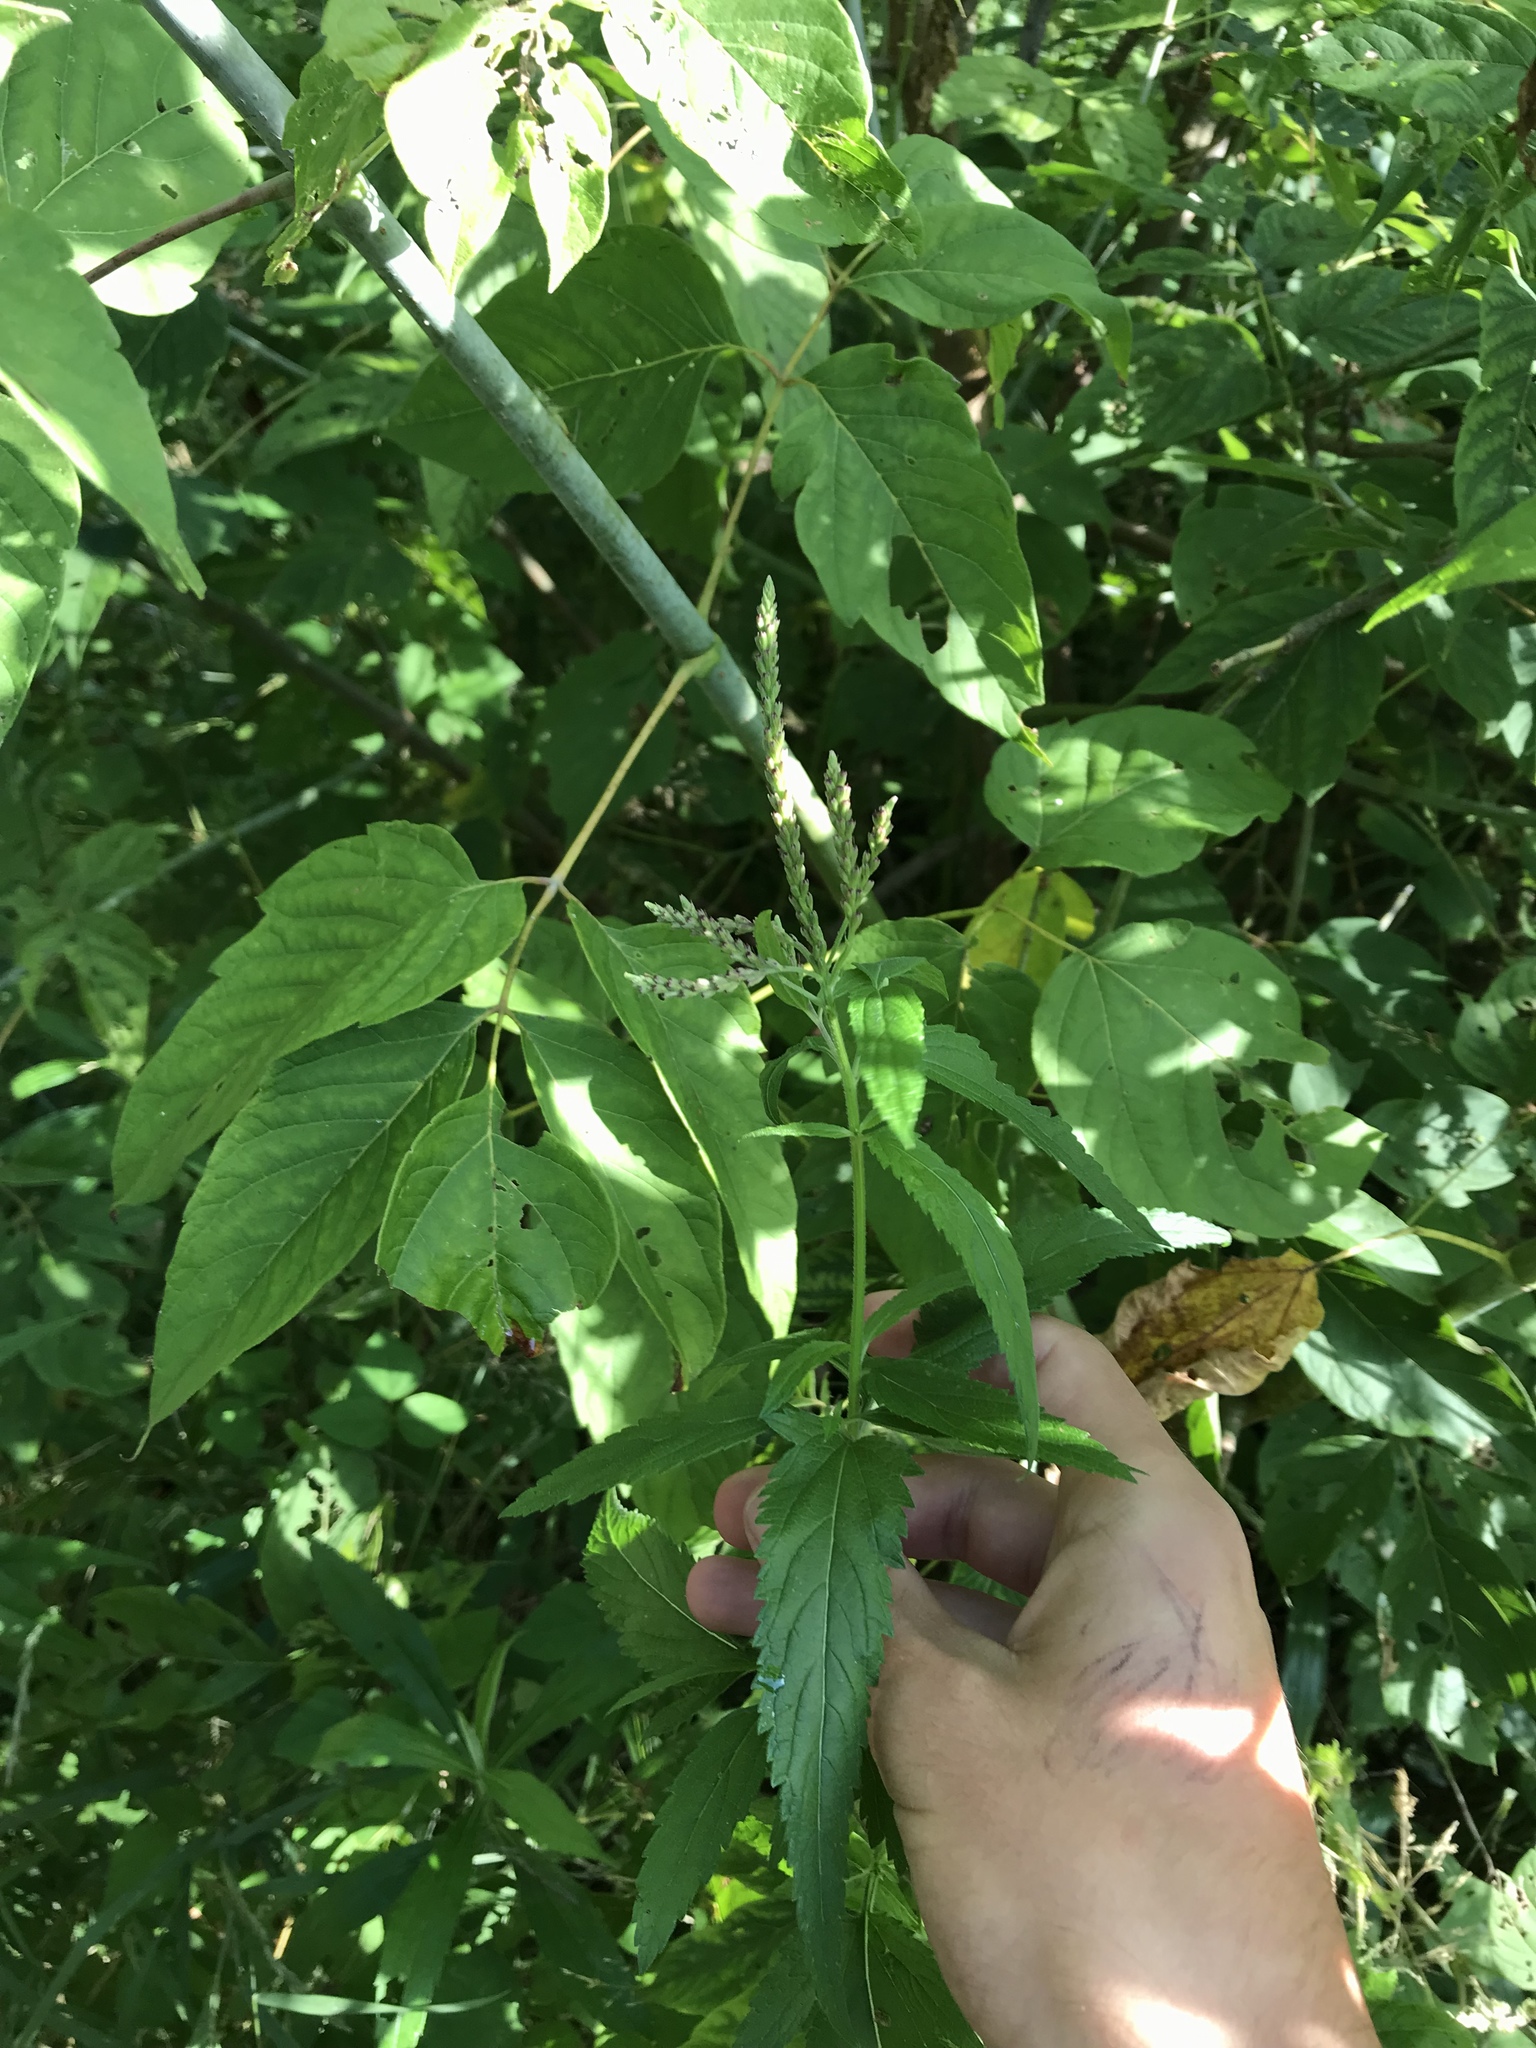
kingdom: Plantae
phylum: Tracheophyta
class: Magnoliopsida
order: Lamiales
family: Verbenaceae
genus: Verbena
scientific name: Verbena hastata
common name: American blue vervain
